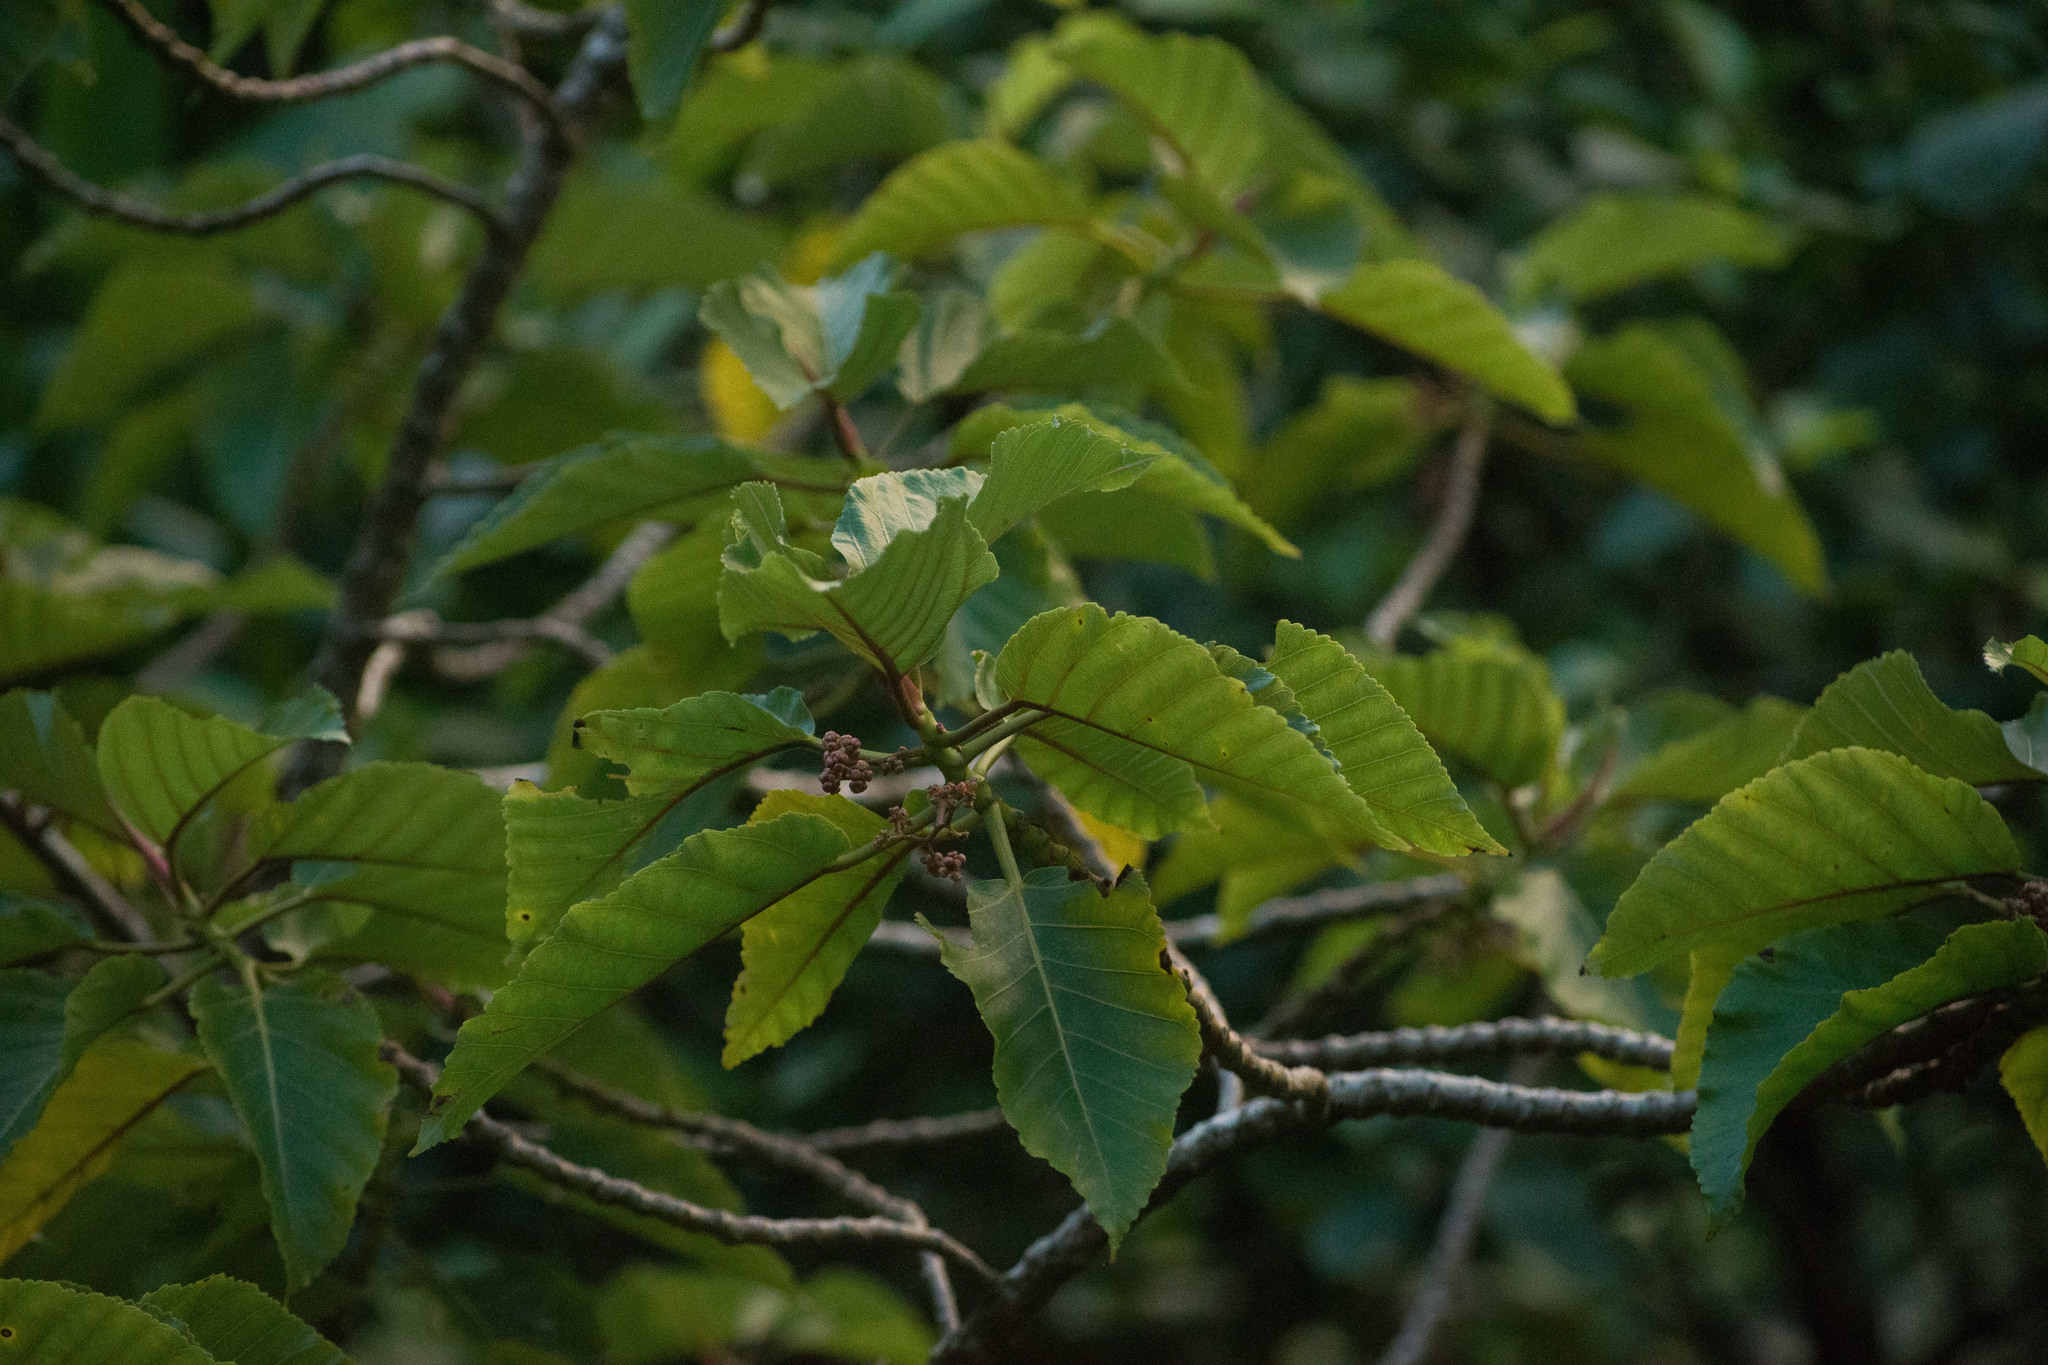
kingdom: Plantae
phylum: Tracheophyta
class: Magnoliopsida
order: Rosales
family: Urticaceae
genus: Touchardia
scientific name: Touchardia oahuensis
